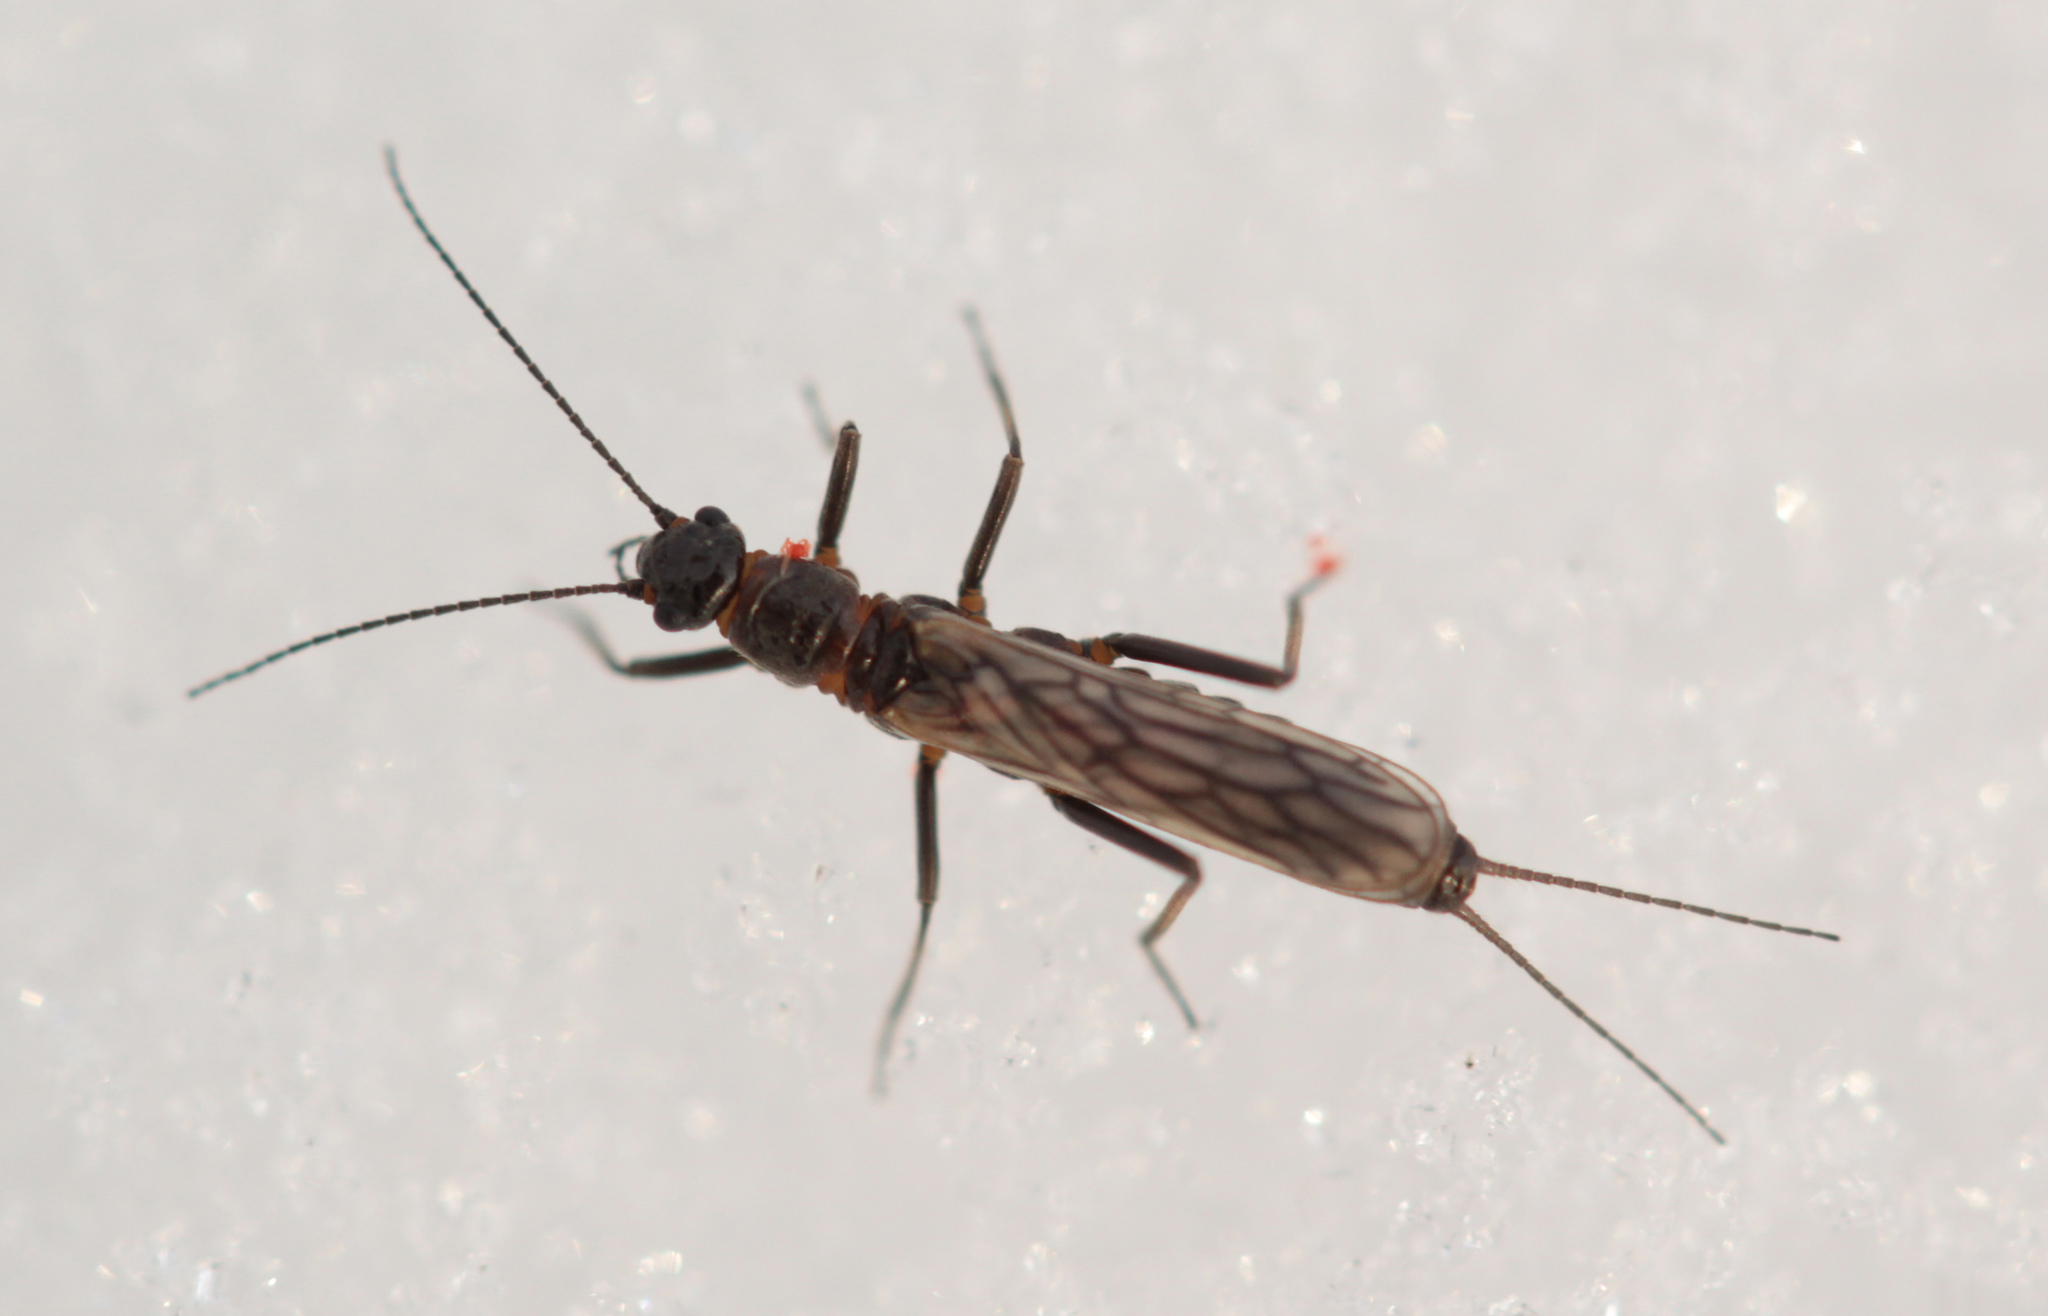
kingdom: Animalia
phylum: Arthropoda
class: Insecta
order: Plecoptera
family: Capniidae
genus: Allocapnia
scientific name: Allocapnia
